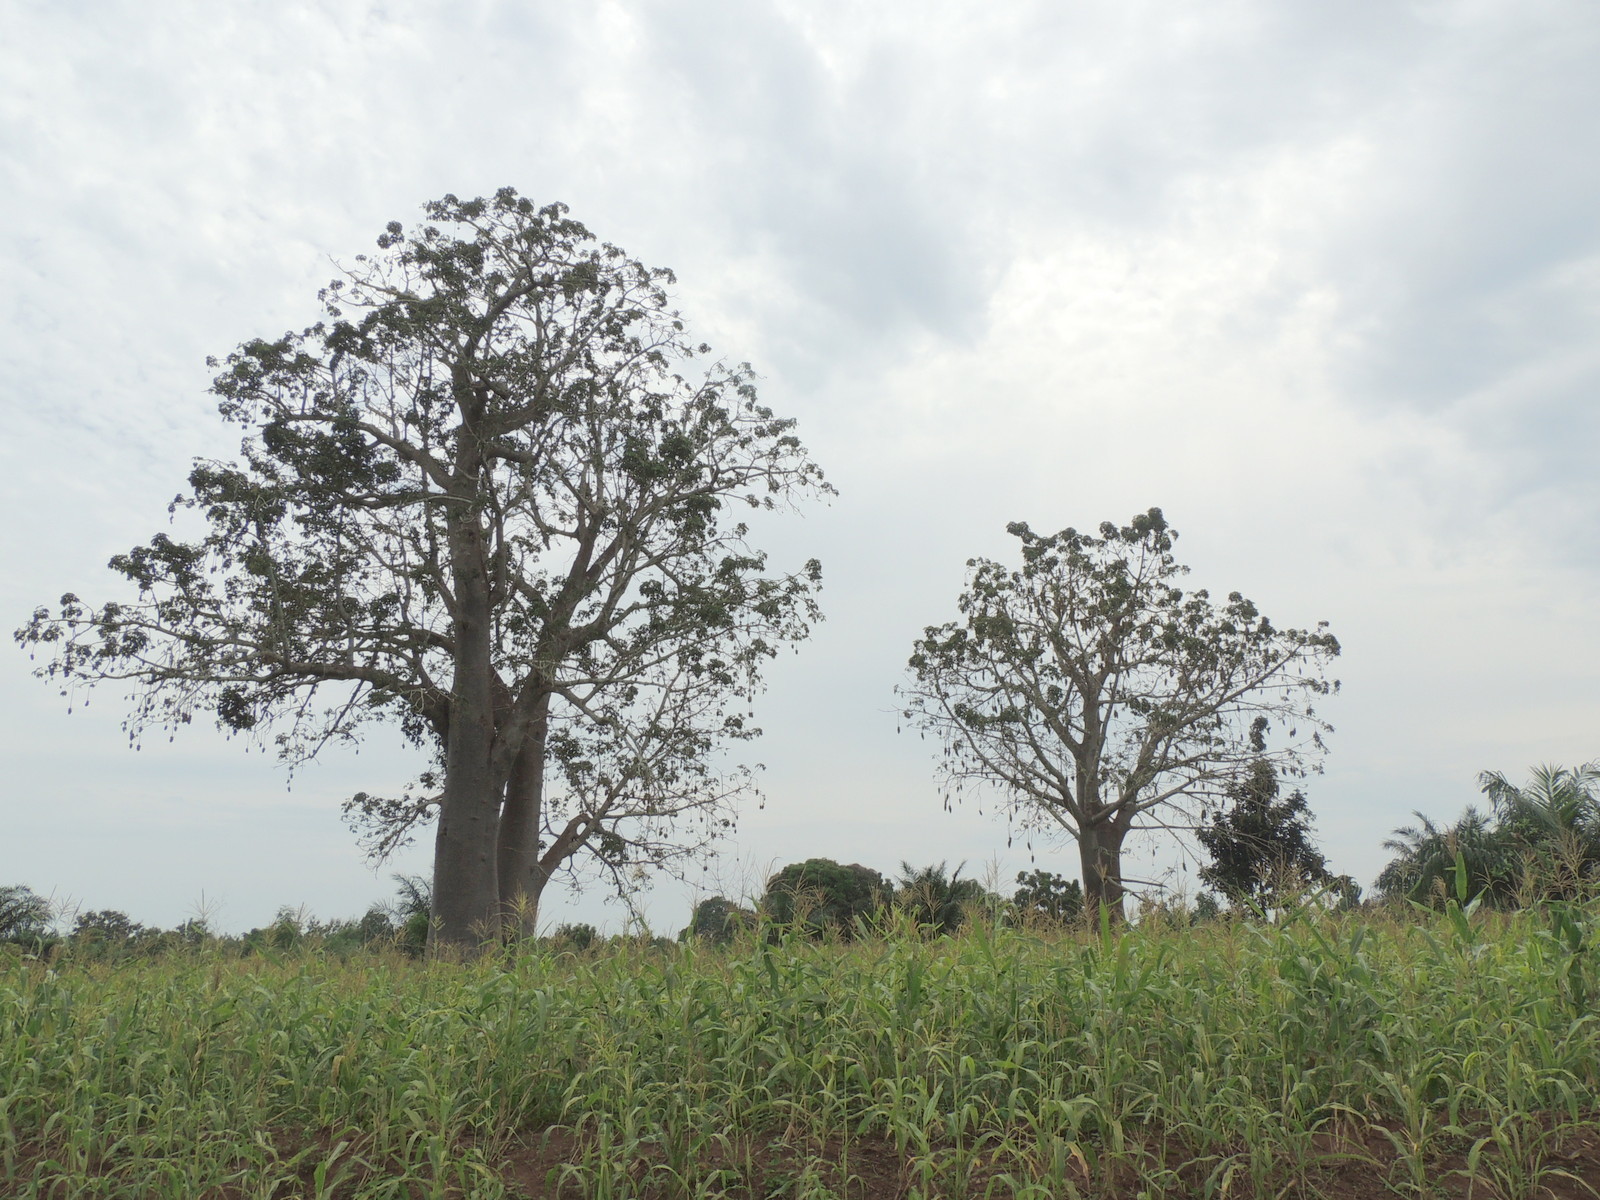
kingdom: Plantae
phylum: Tracheophyta
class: Magnoliopsida
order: Malvales
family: Malvaceae
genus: Adansonia
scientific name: Adansonia digitata
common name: Dead-rat-tree
